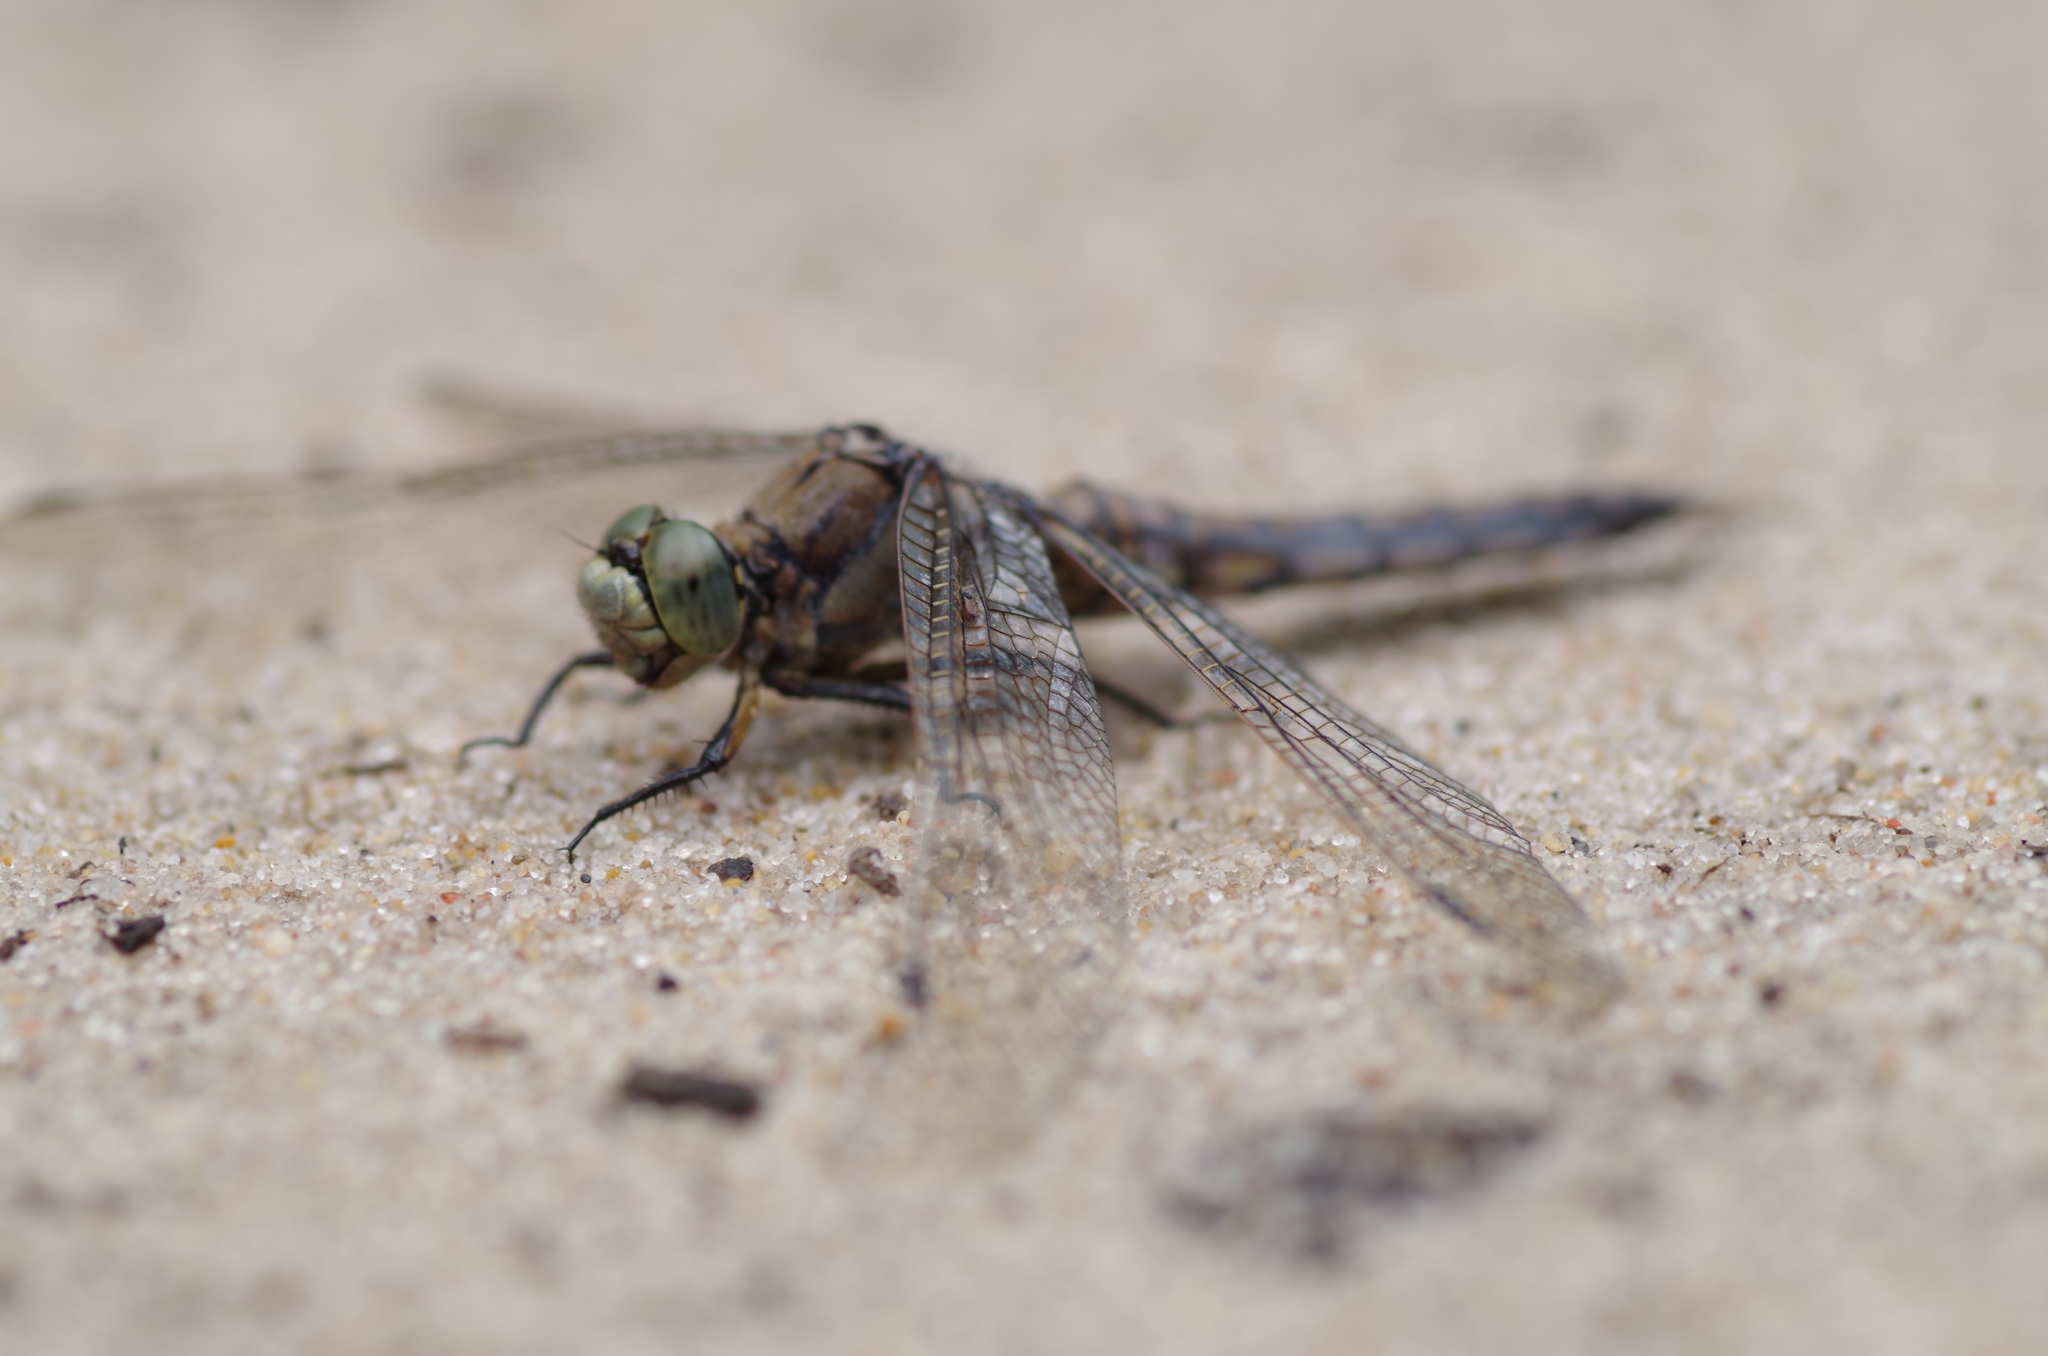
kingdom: Animalia
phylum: Arthropoda
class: Insecta
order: Odonata
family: Libellulidae
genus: Orthetrum
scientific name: Orthetrum cancellatum
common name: Black-tailed skimmer
